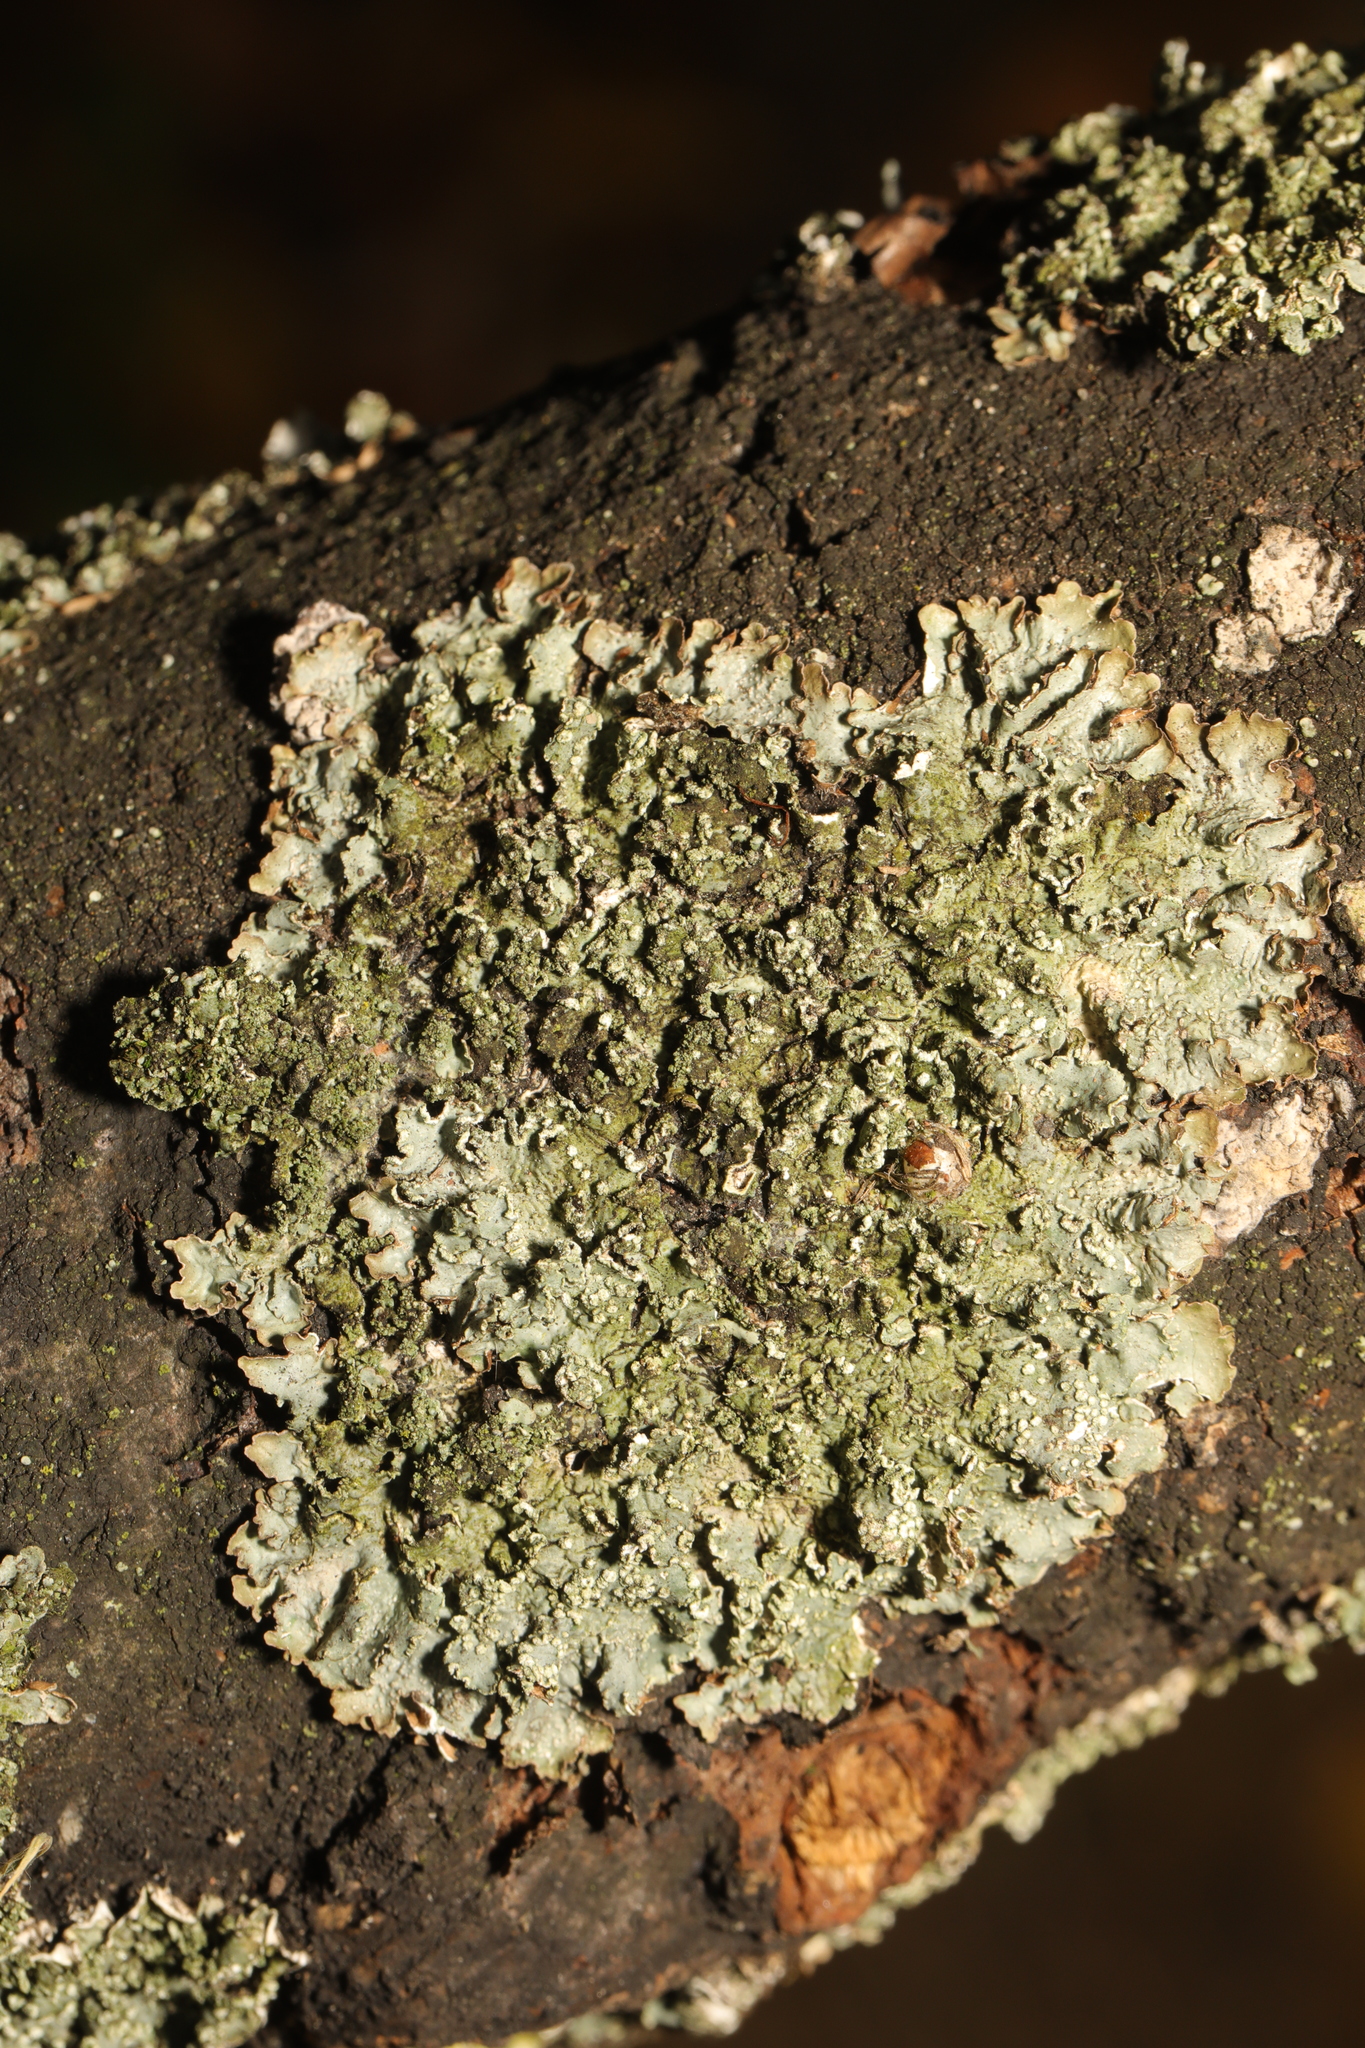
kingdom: Fungi
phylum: Ascomycota
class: Lecanoromycetes
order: Lecanorales
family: Parmeliaceae
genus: Punctelia
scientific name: Punctelia jeckeri
